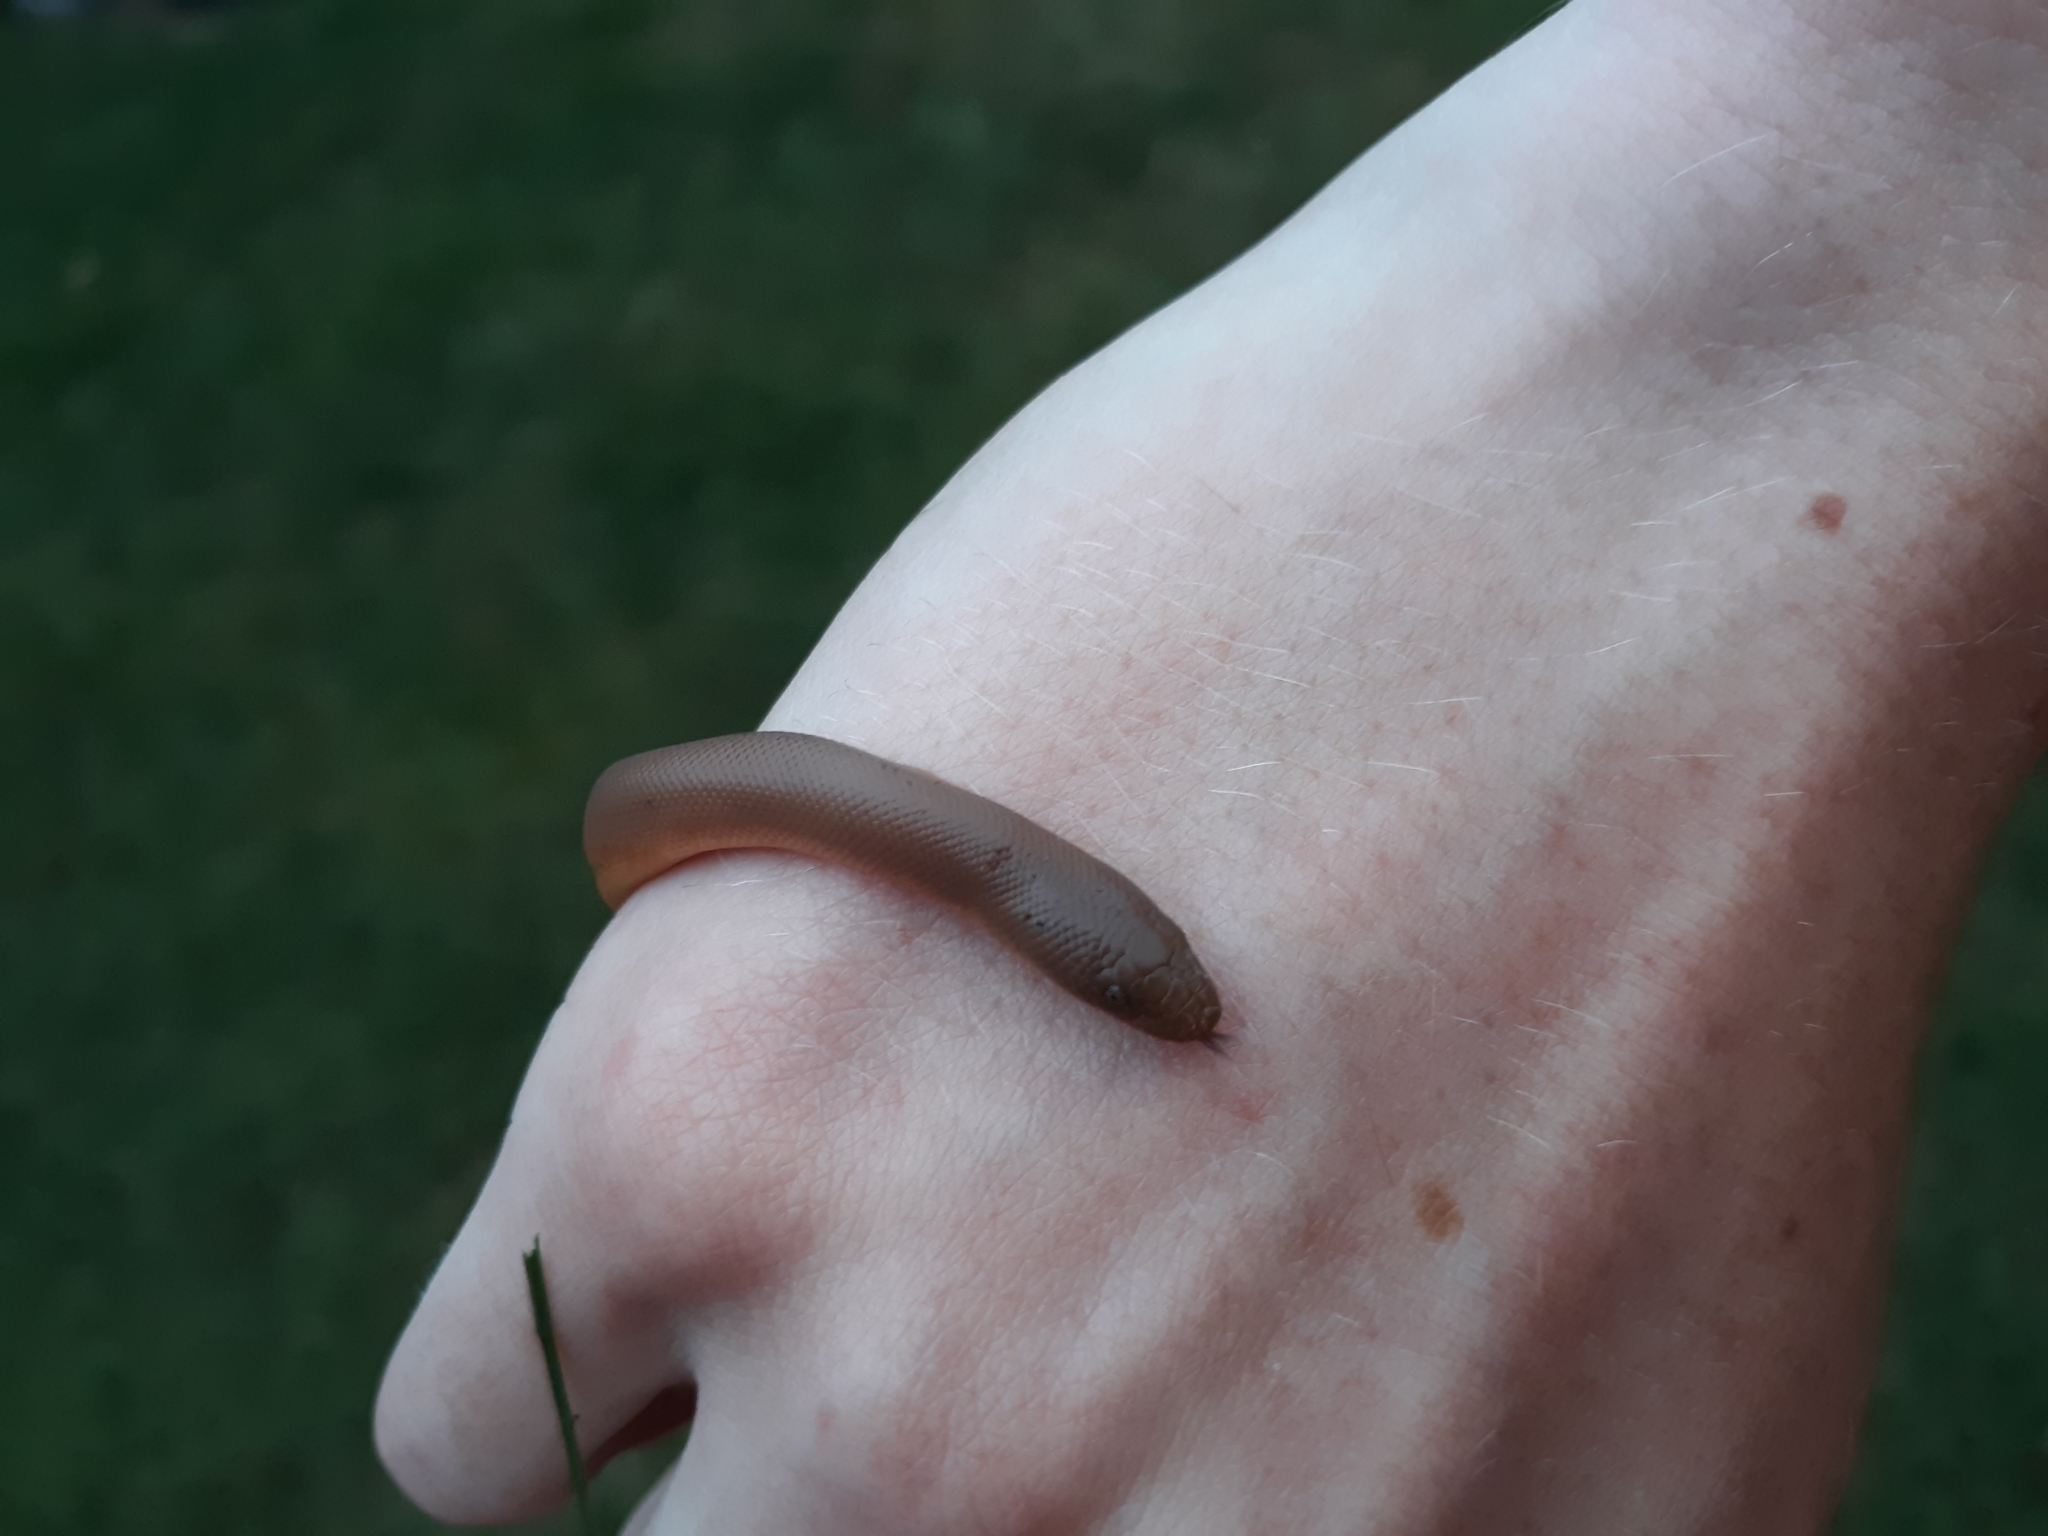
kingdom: Animalia
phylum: Chordata
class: Squamata
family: Boidae
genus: Charina
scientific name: Charina bottae
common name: Northern rubber boa
